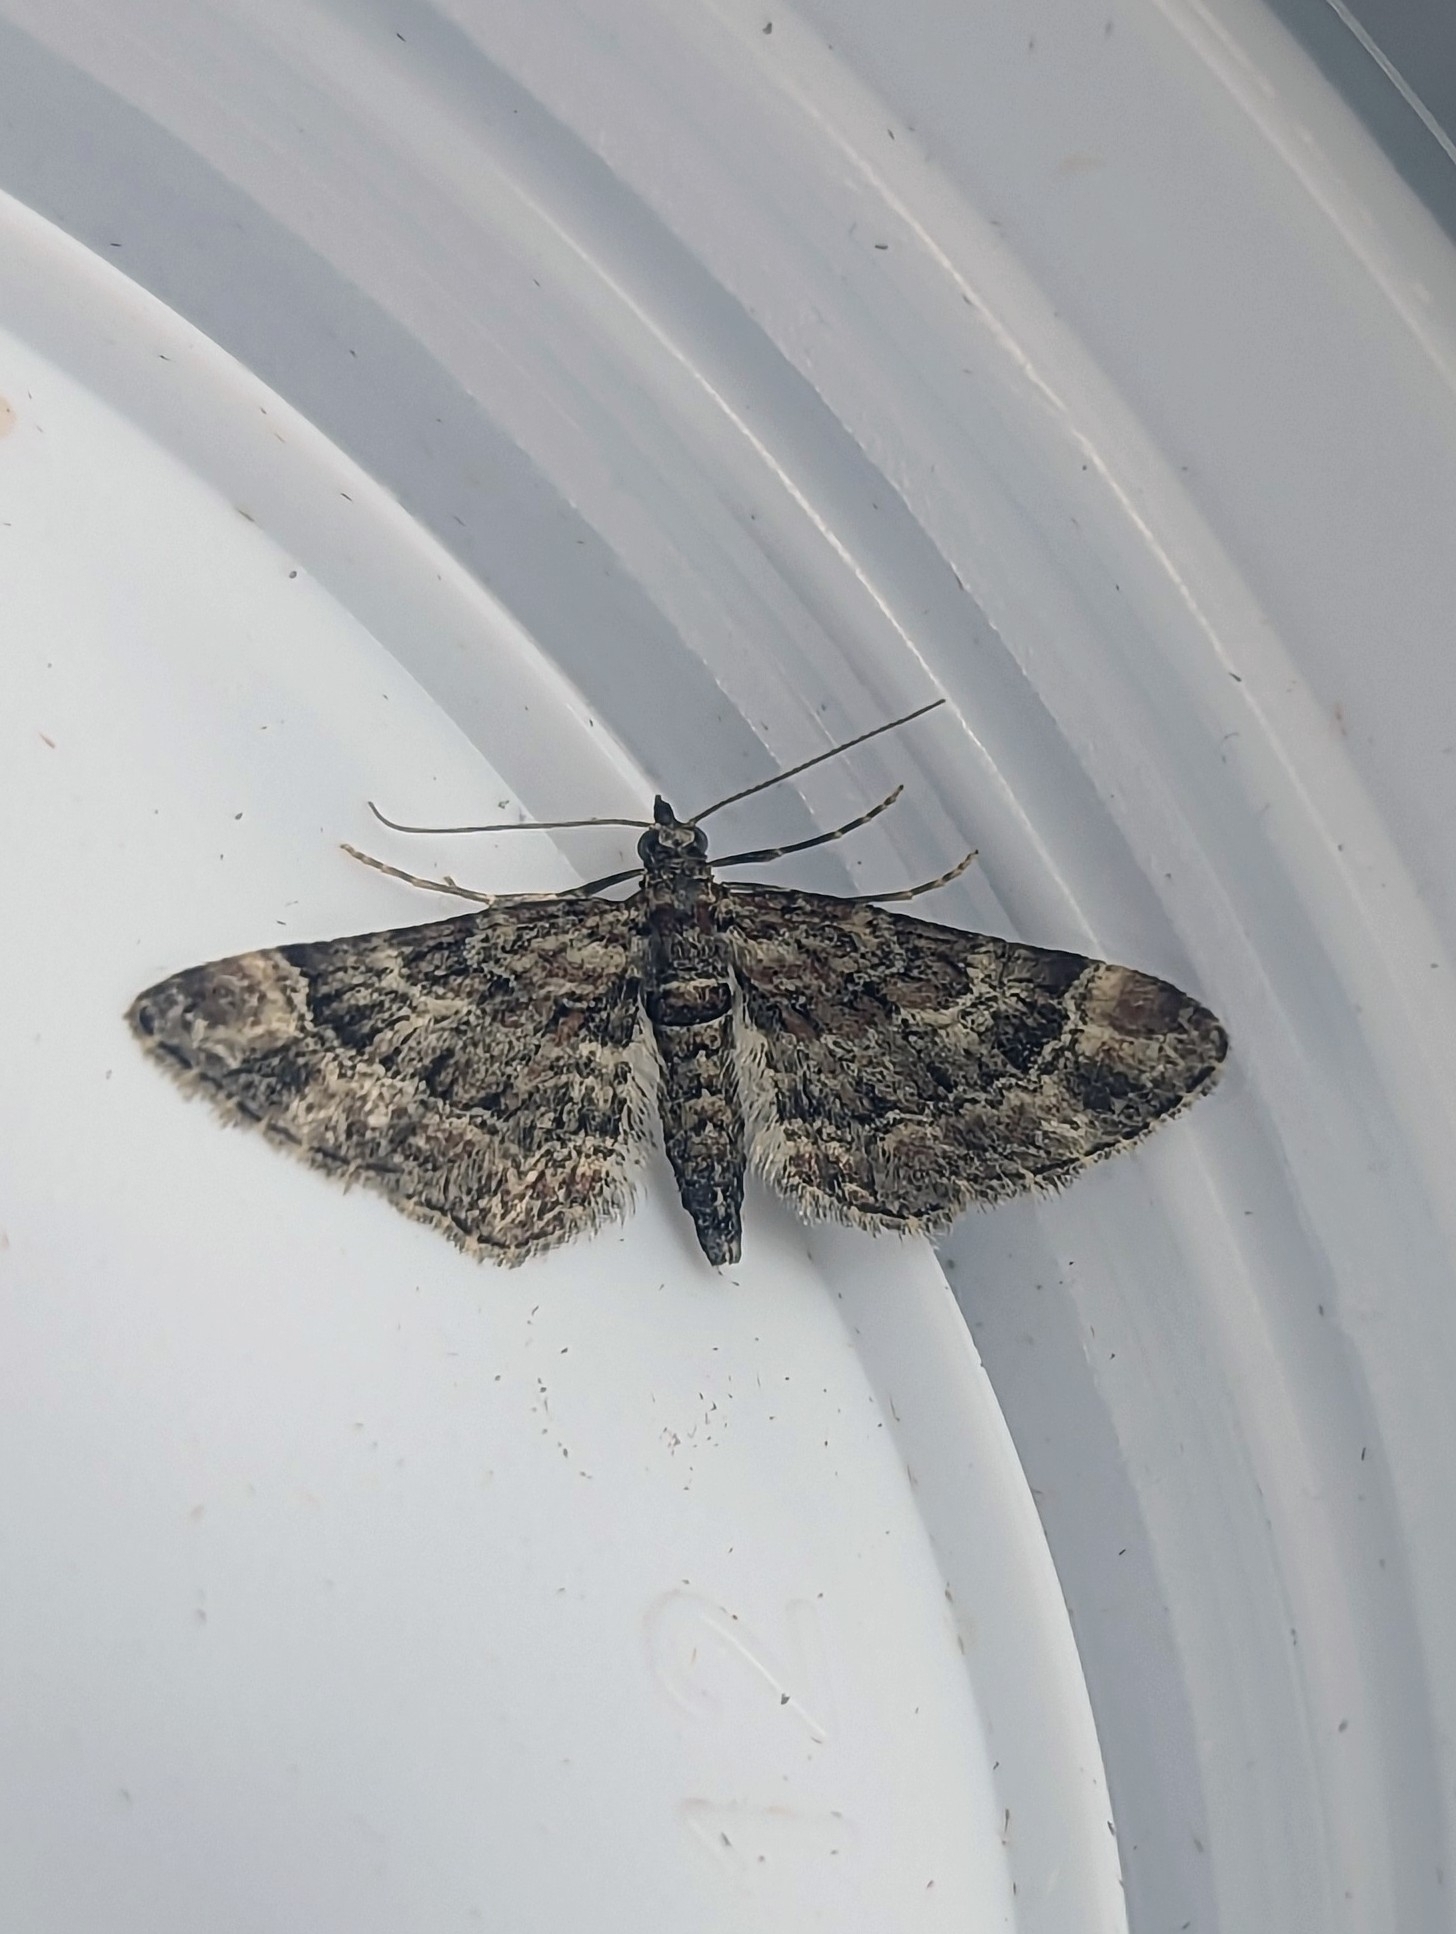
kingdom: Animalia
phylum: Arthropoda
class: Insecta
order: Lepidoptera
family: Geometridae
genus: Gymnoscelis
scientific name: Gymnoscelis rufifasciata
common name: Double-striped pug
